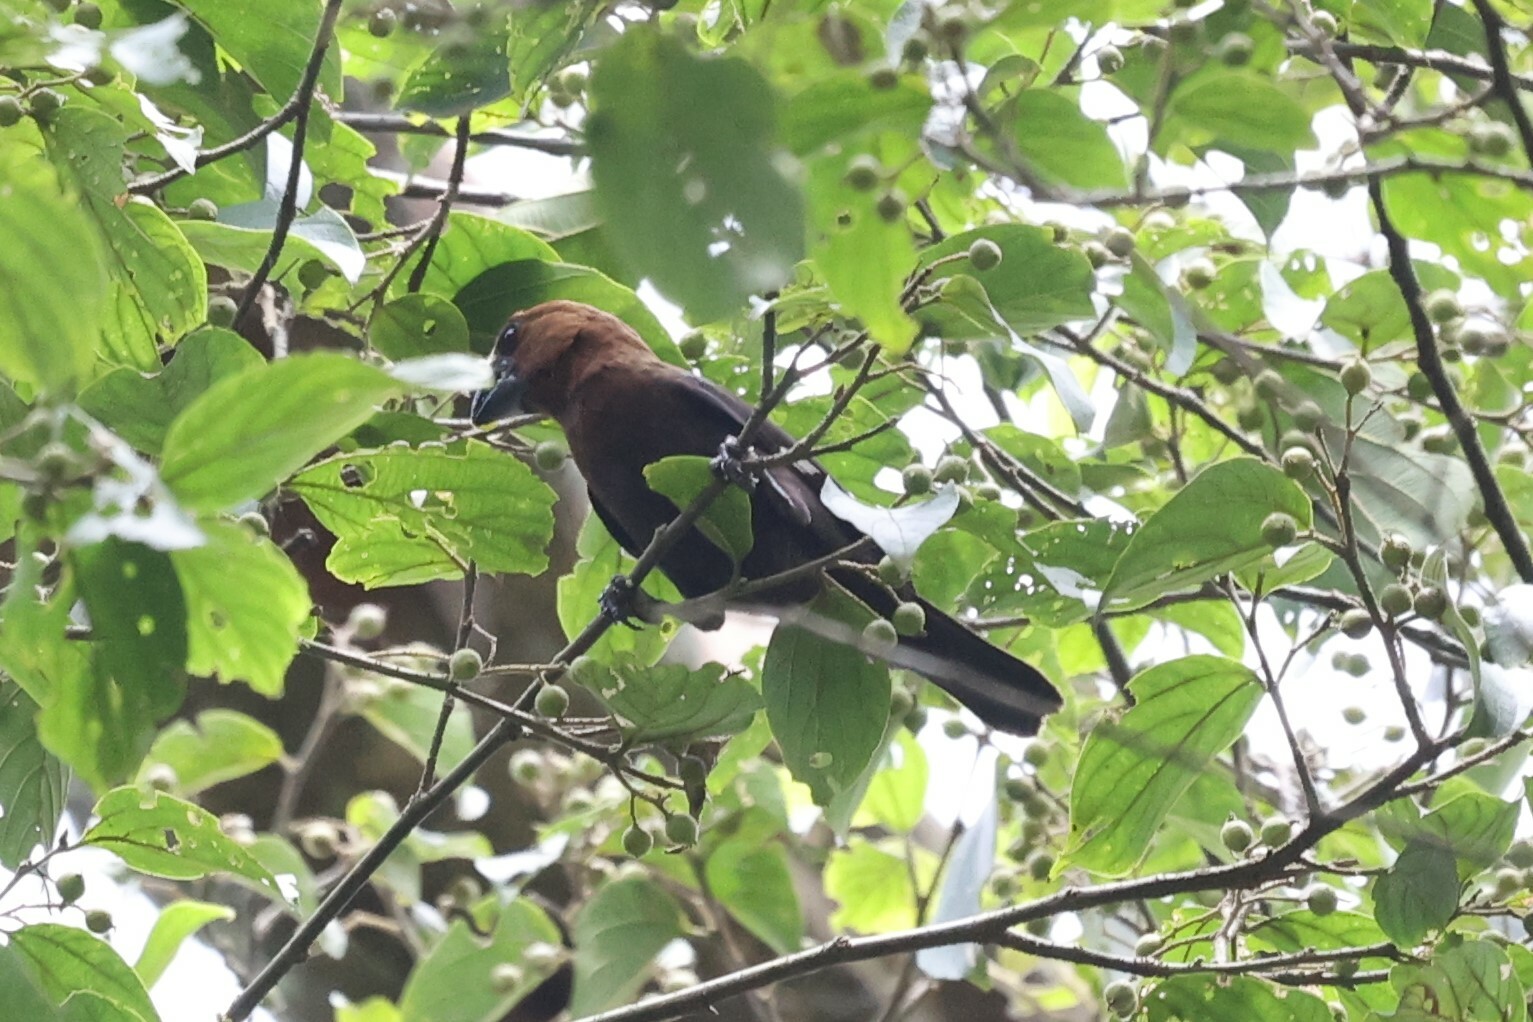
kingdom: Animalia
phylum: Chordata
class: Aves
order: Passeriformes
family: Ploceidae
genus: Amblyospiza
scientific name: Amblyospiza albifrons
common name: Thick-billed weaver
